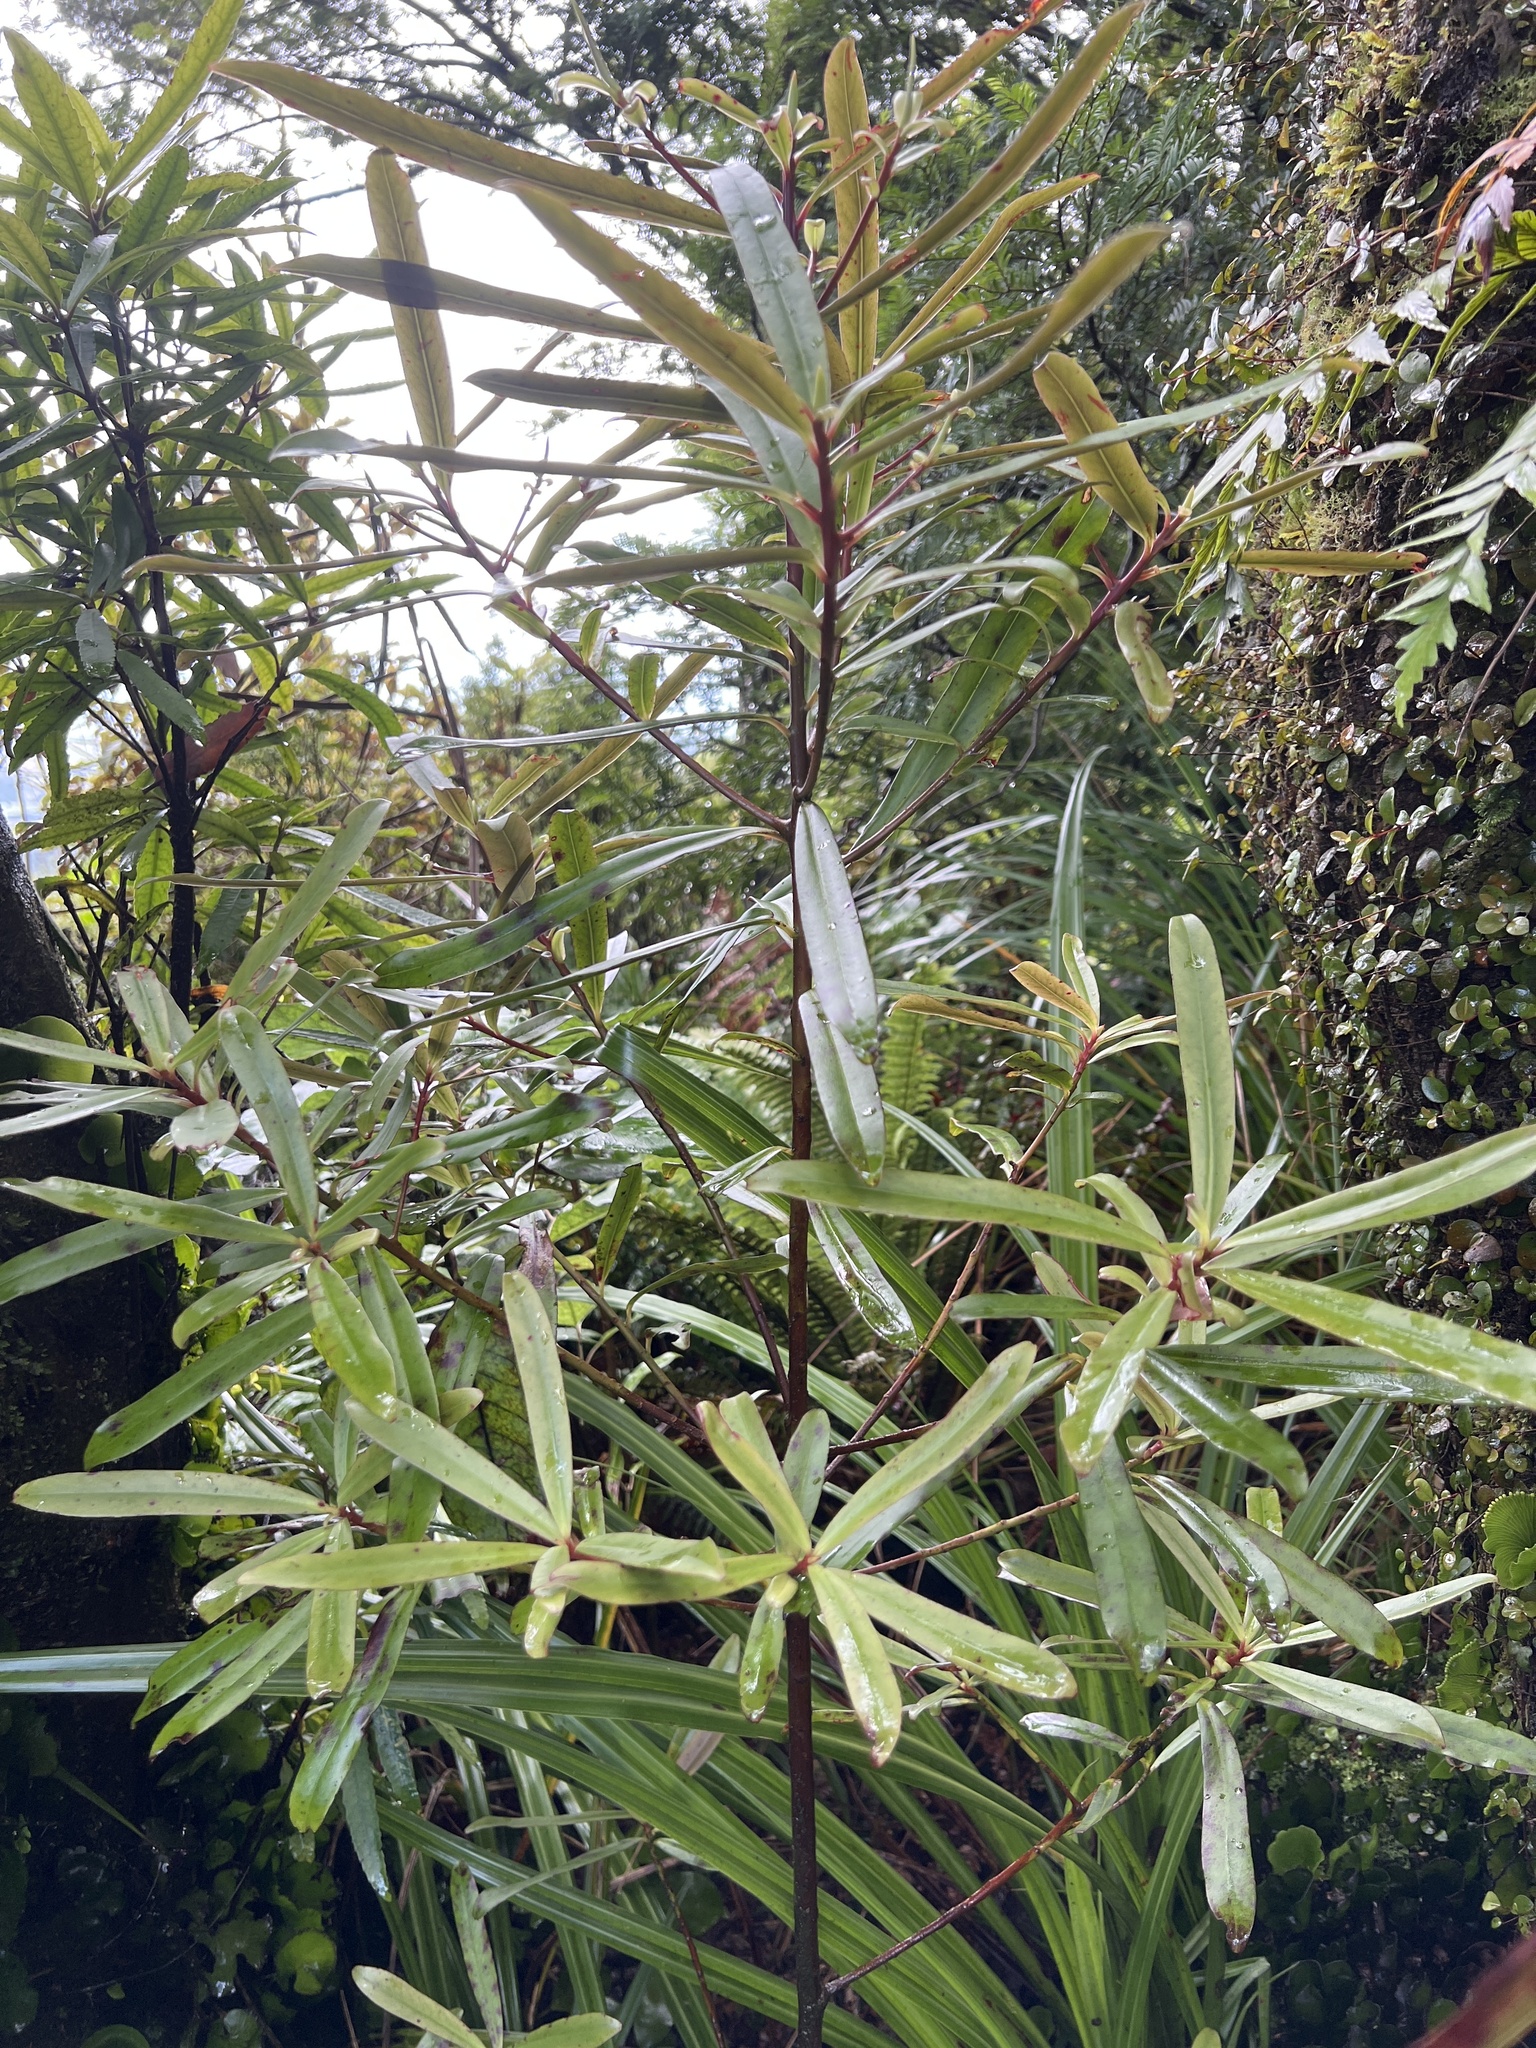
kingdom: Plantae
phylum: Tracheophyta
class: Magnoliopsida
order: Ericales
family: Primulaceae
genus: Myrsine
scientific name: Myrsine salicina
